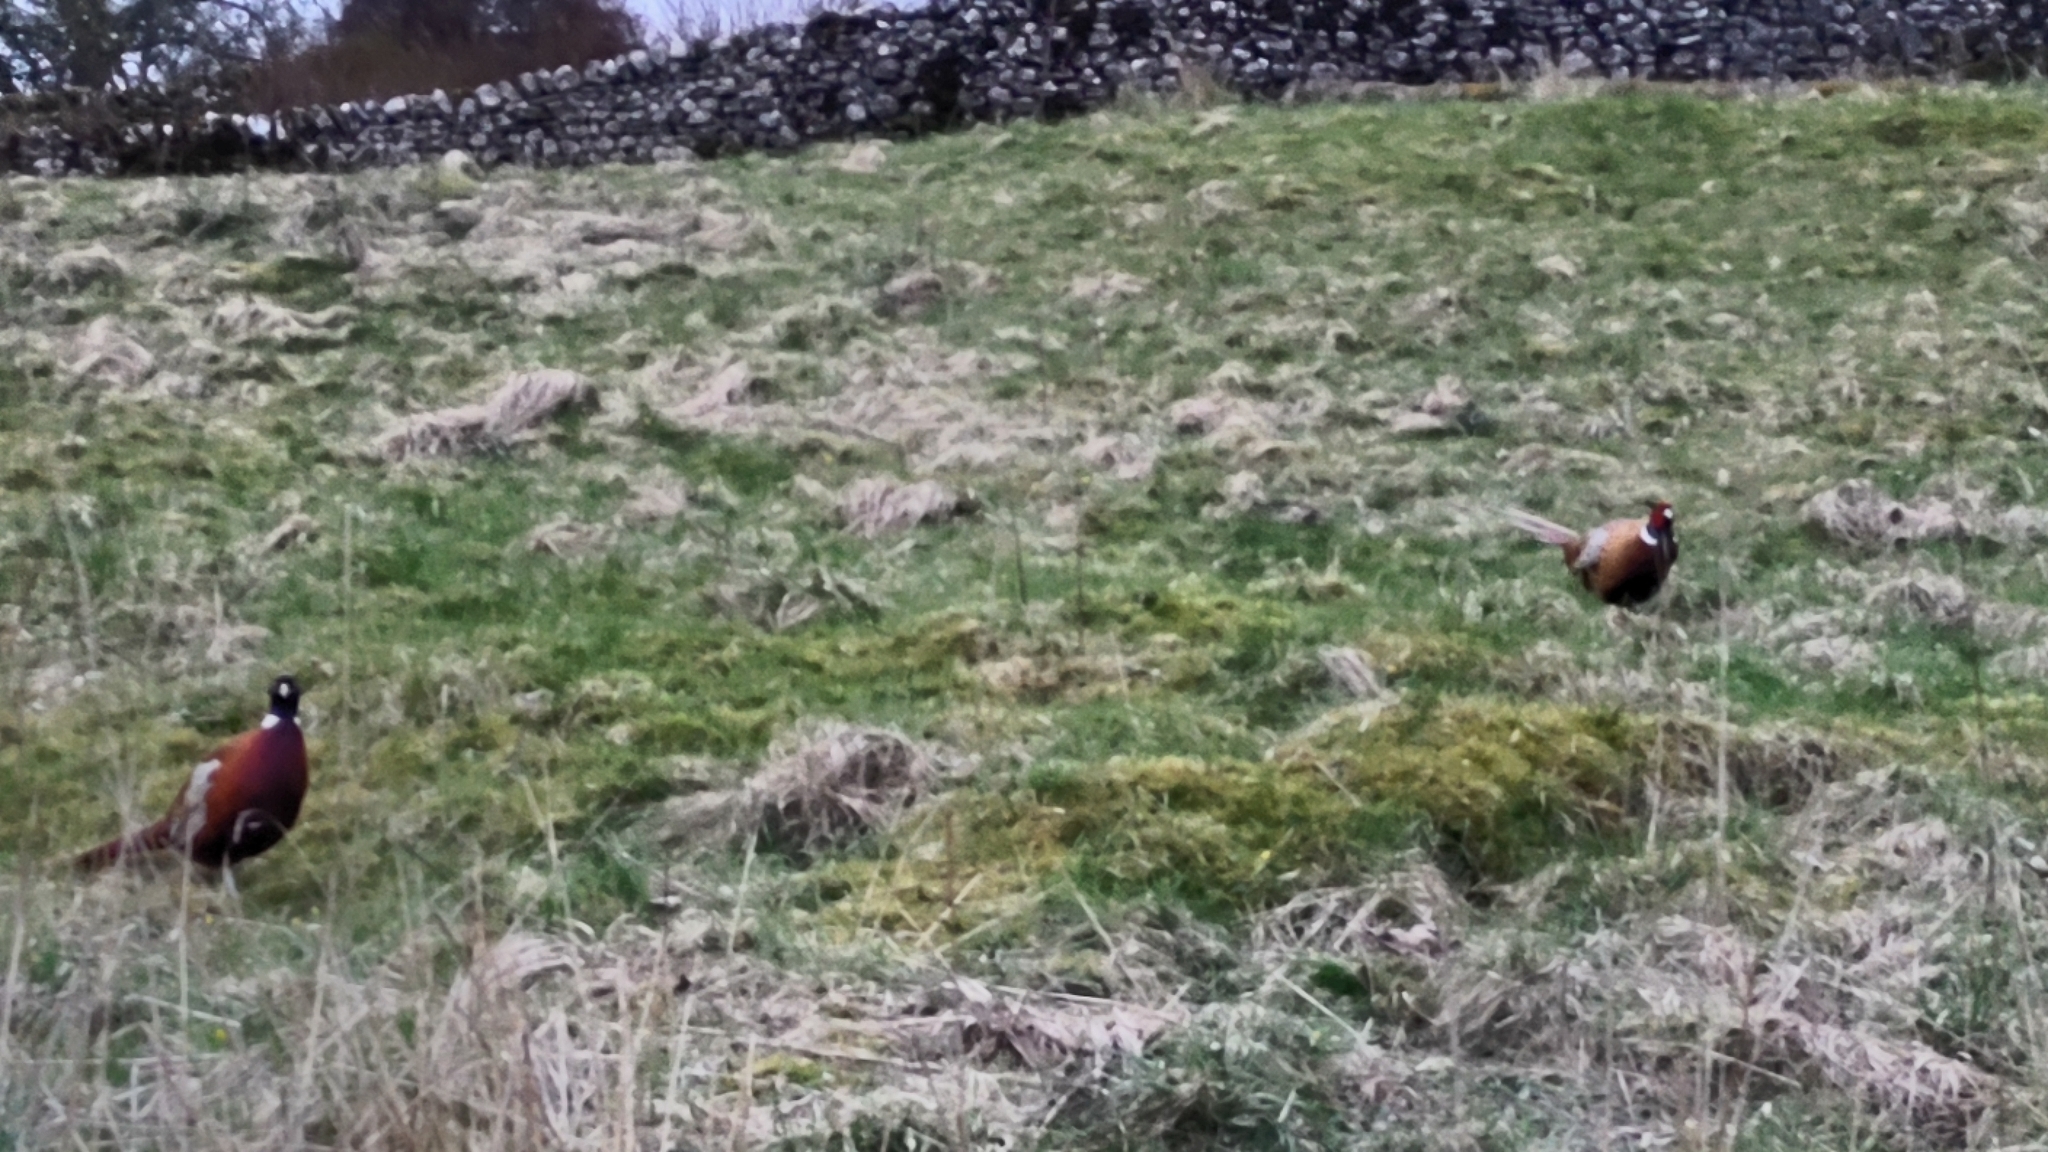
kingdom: Animalia
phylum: Chordata
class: Aves
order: Galliformes
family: Phasianidae
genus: Phasianus
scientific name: Phasianus colchicus
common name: Common pheasant
